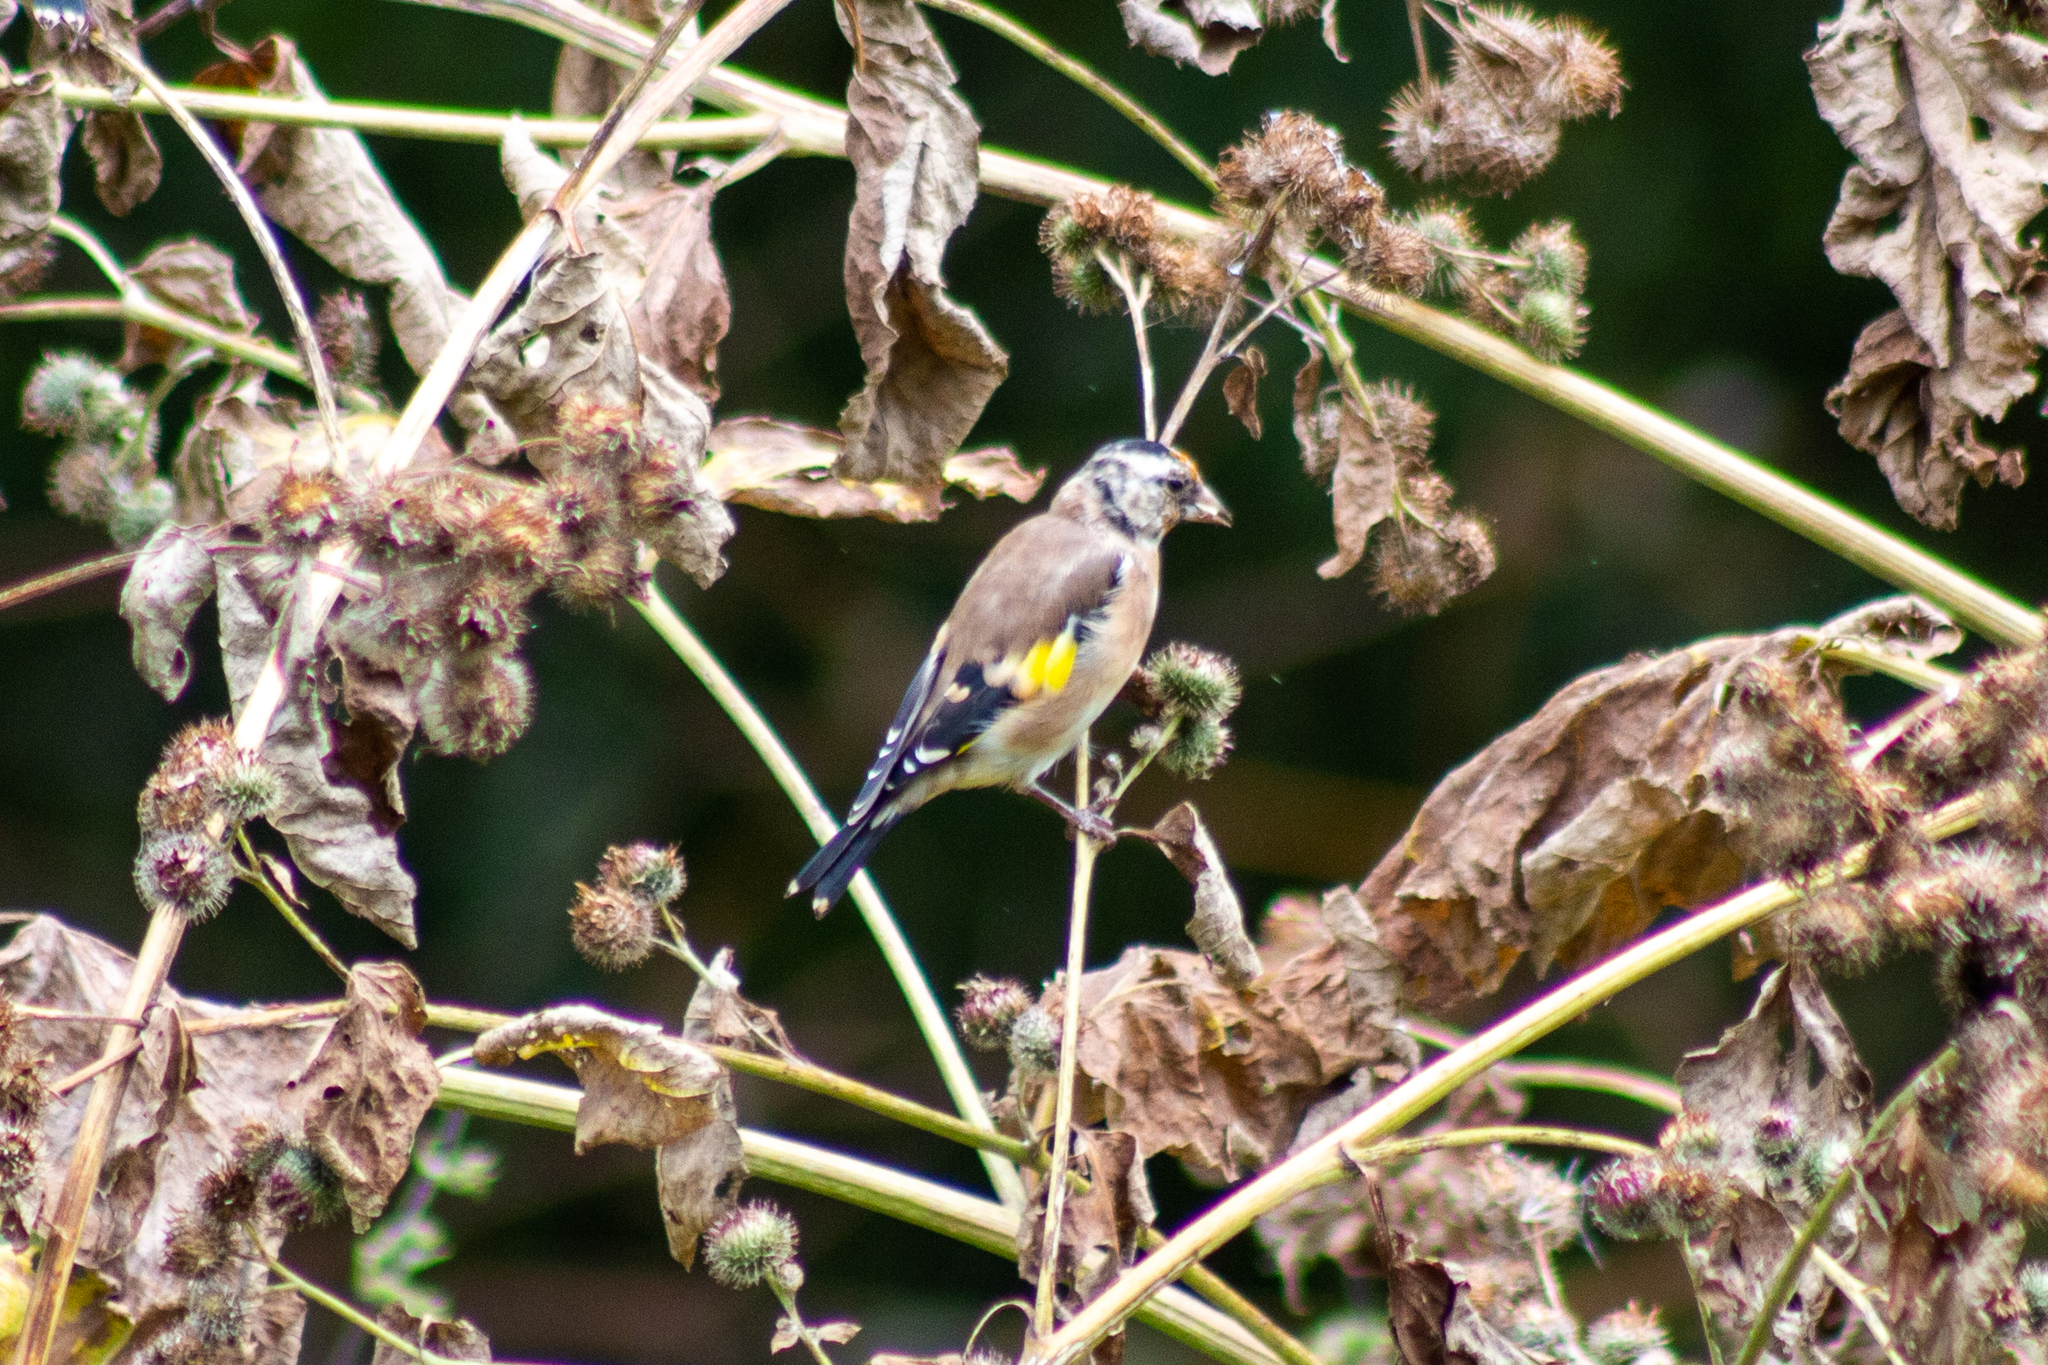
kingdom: Animalia
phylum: Chordata
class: Aves
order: Passeriformes
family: Fringillidae
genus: Carduelis
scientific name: Carduelis carduelis
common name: European goldfinch
